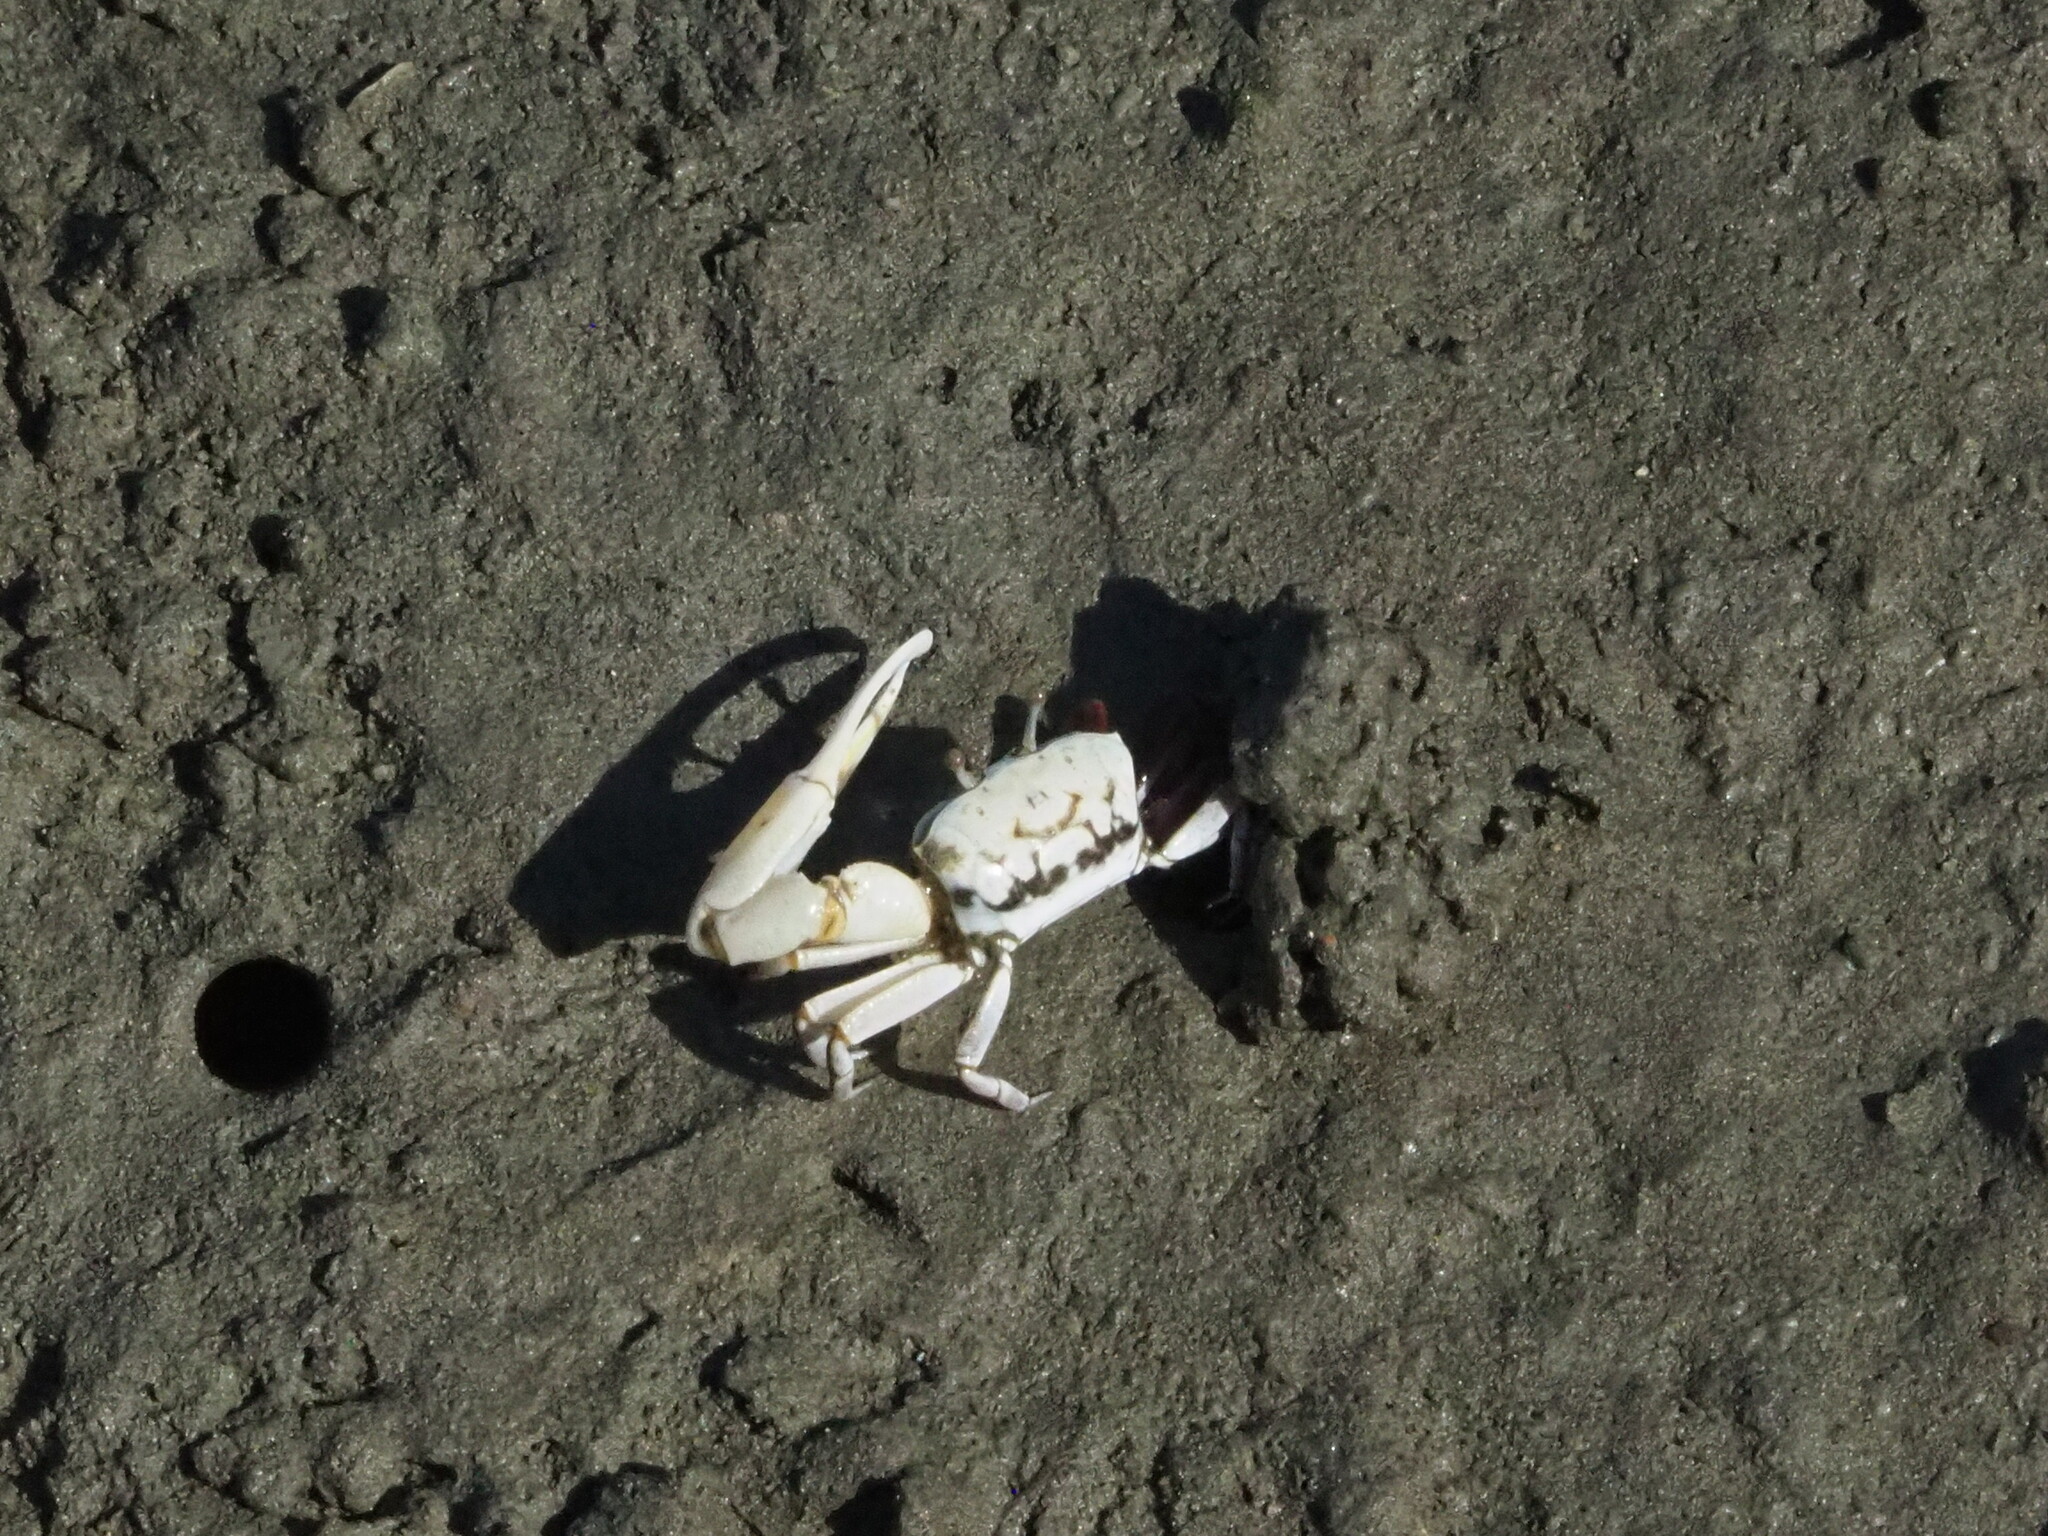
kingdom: Animalia
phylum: Arthropoda
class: Malacostraca
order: Decapoda
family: Ocypodidae
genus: Austruca
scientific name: Austruca lactea
